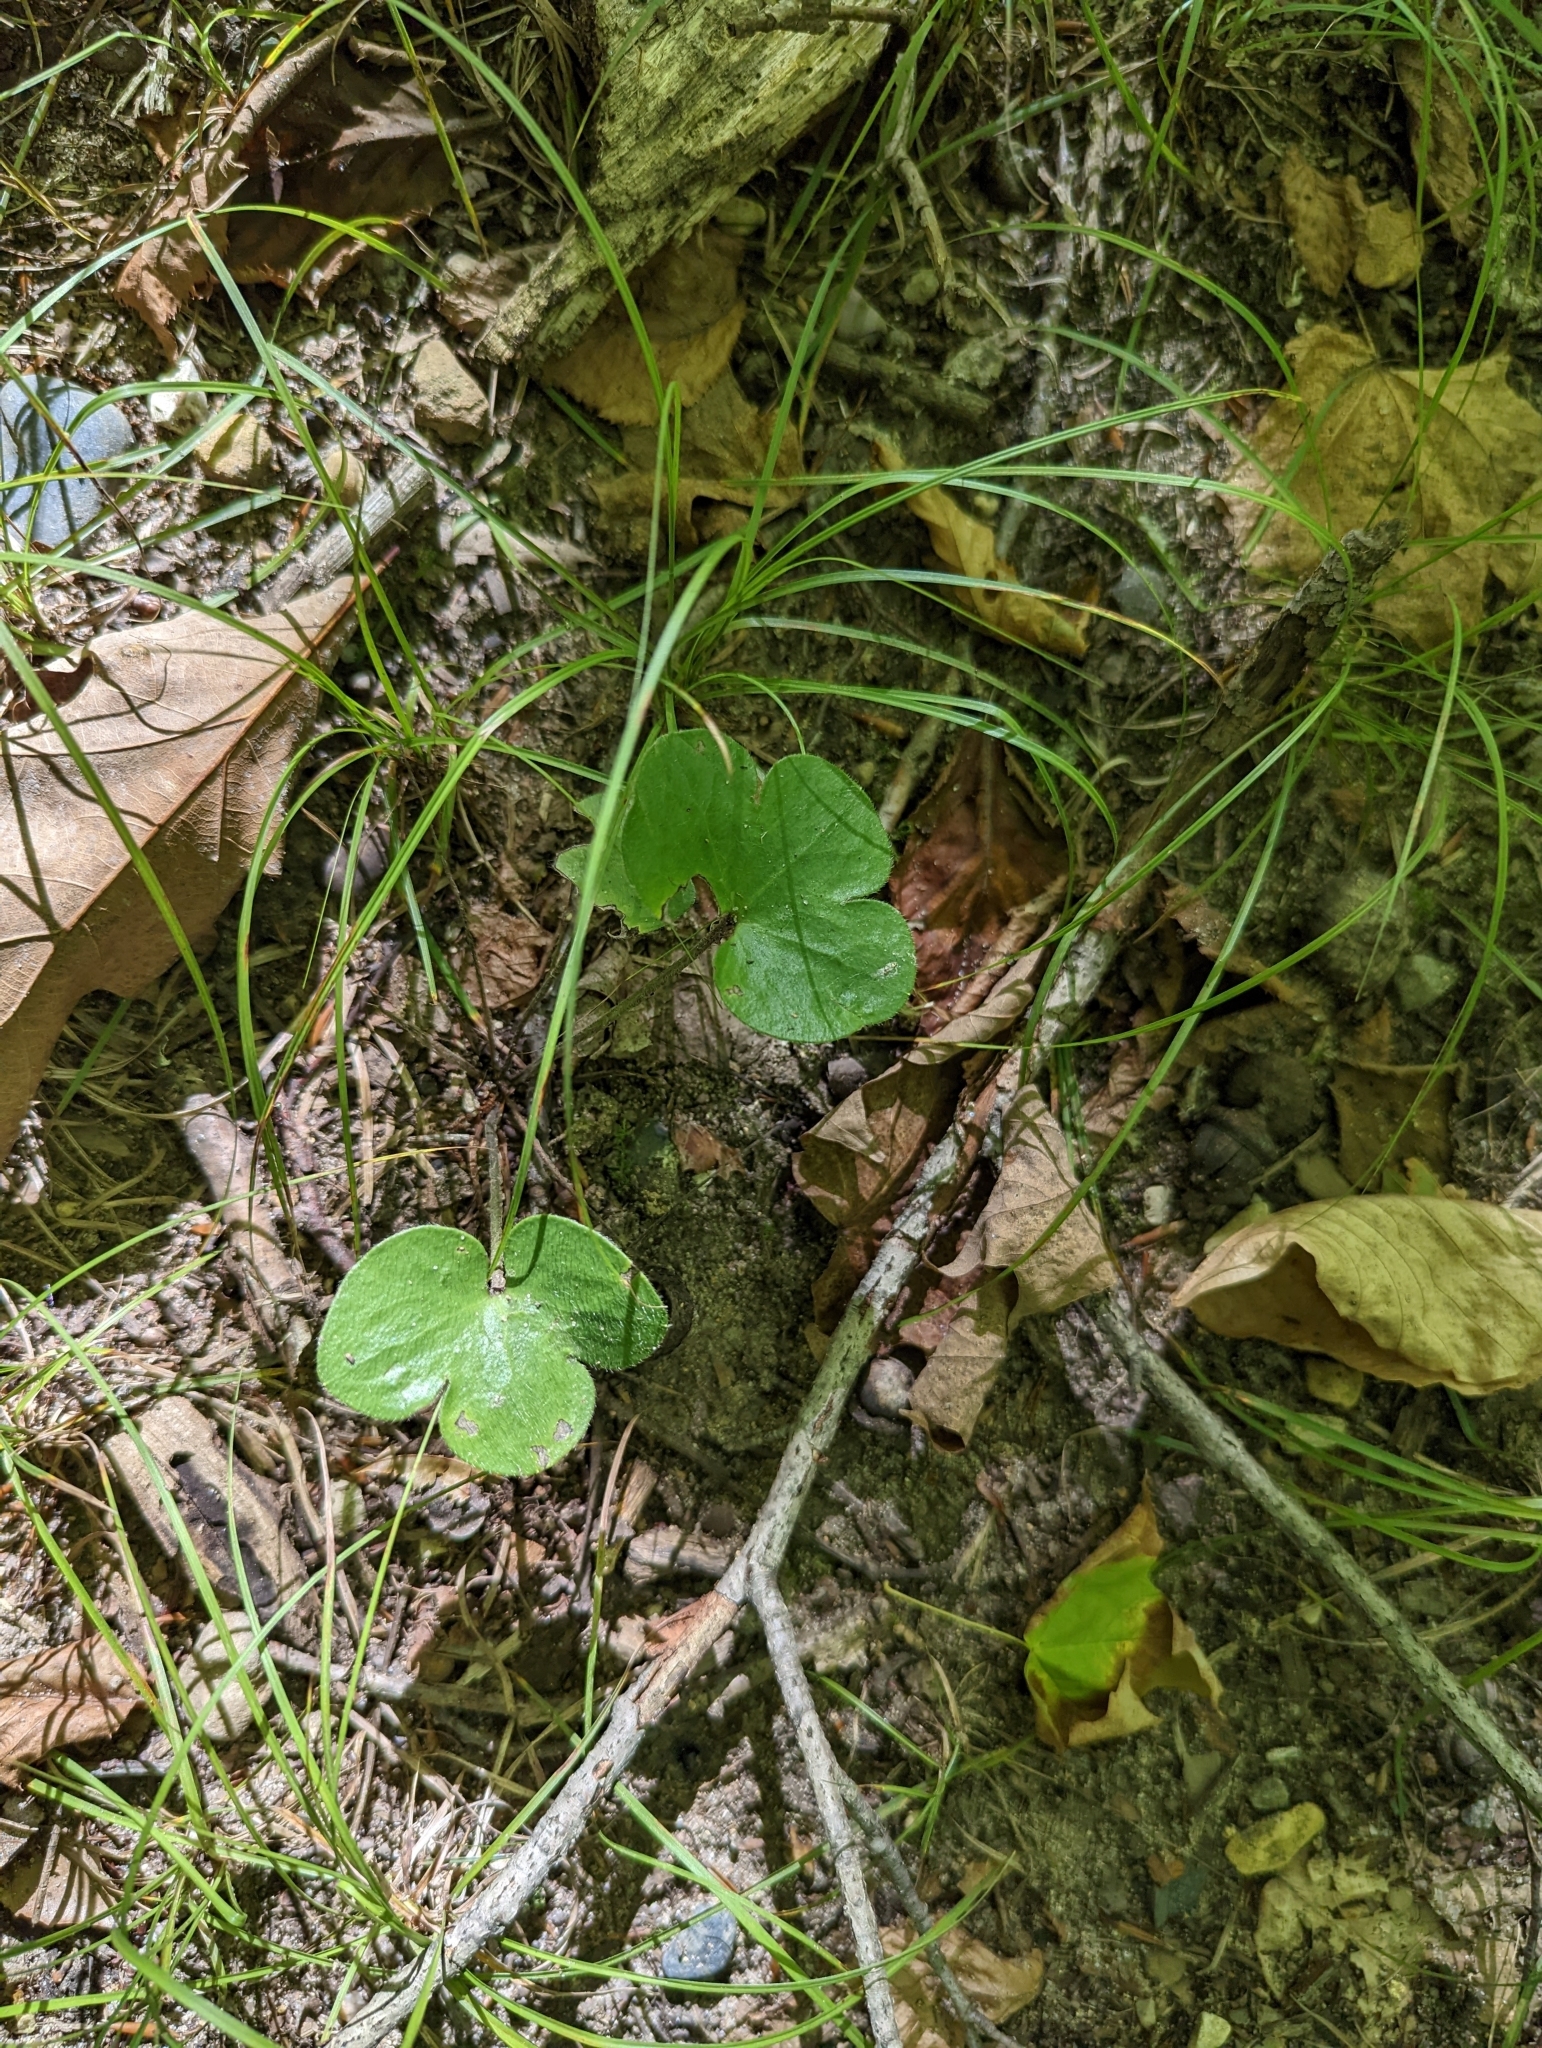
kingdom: Plantae
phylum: Tracheophyta
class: Magnoliopsida
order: Ranunculales
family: Ranunculaceae
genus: Hepatica
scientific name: Hepatica americana
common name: American hepatica
